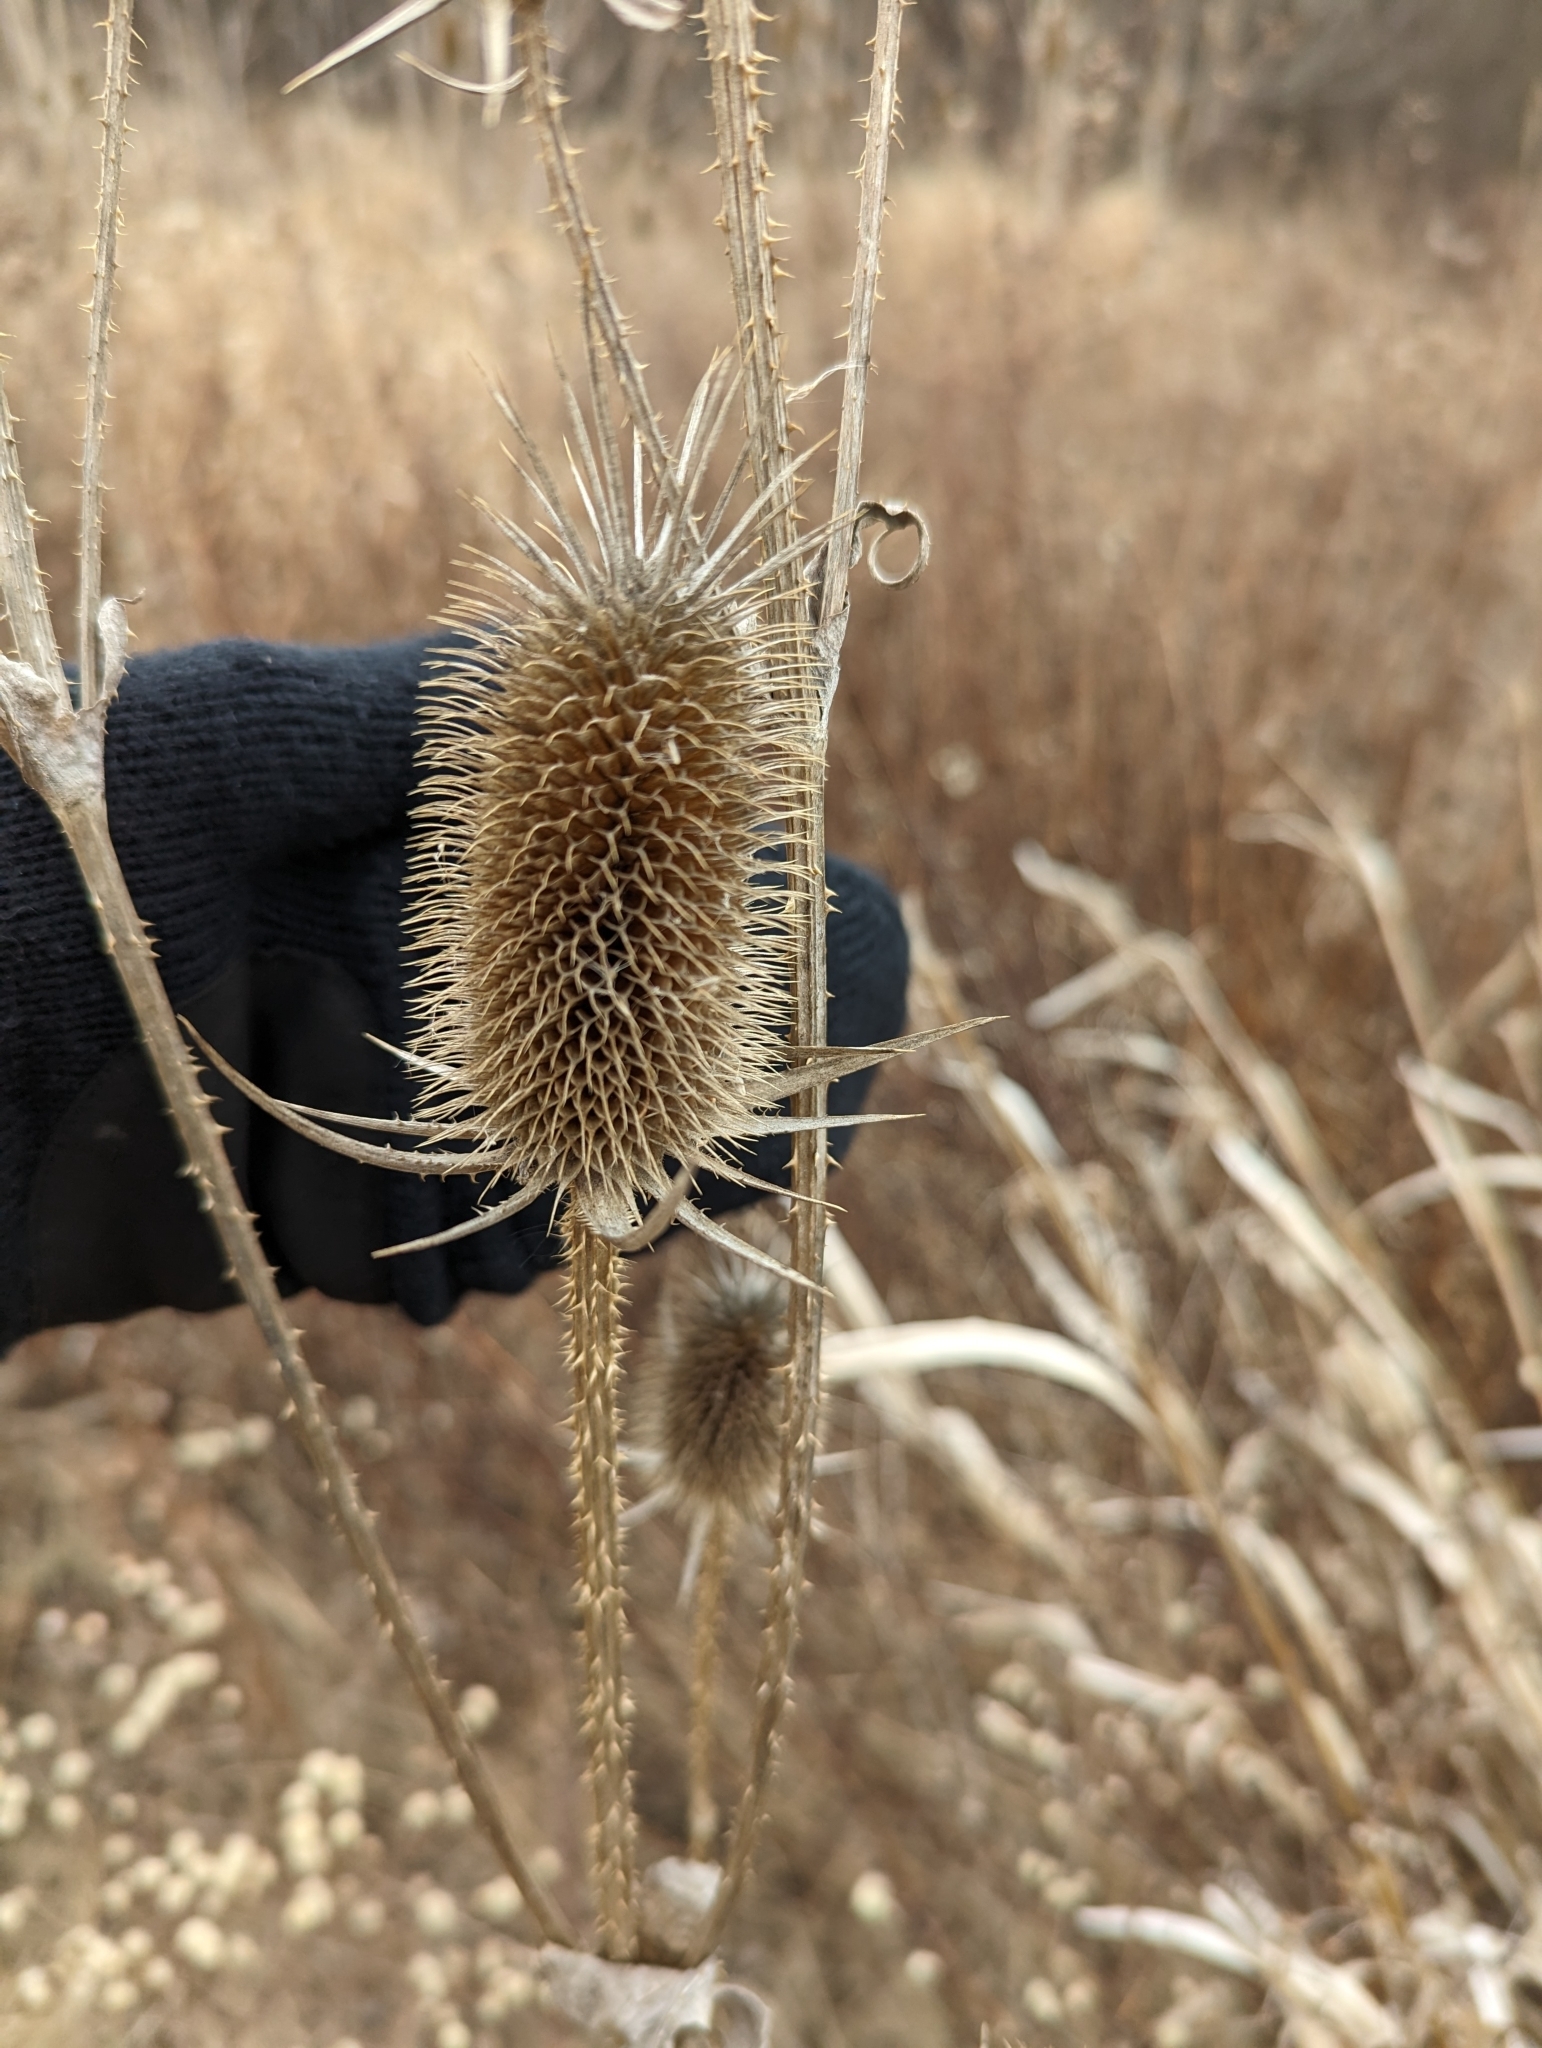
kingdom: Plantae
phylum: Tracheophyta
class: Magnoliopsida
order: Dipsacales
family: Caprifoliaceae
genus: Dipsacus
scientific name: Dipsacus laciniatus
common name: Cut-leaved teasel
